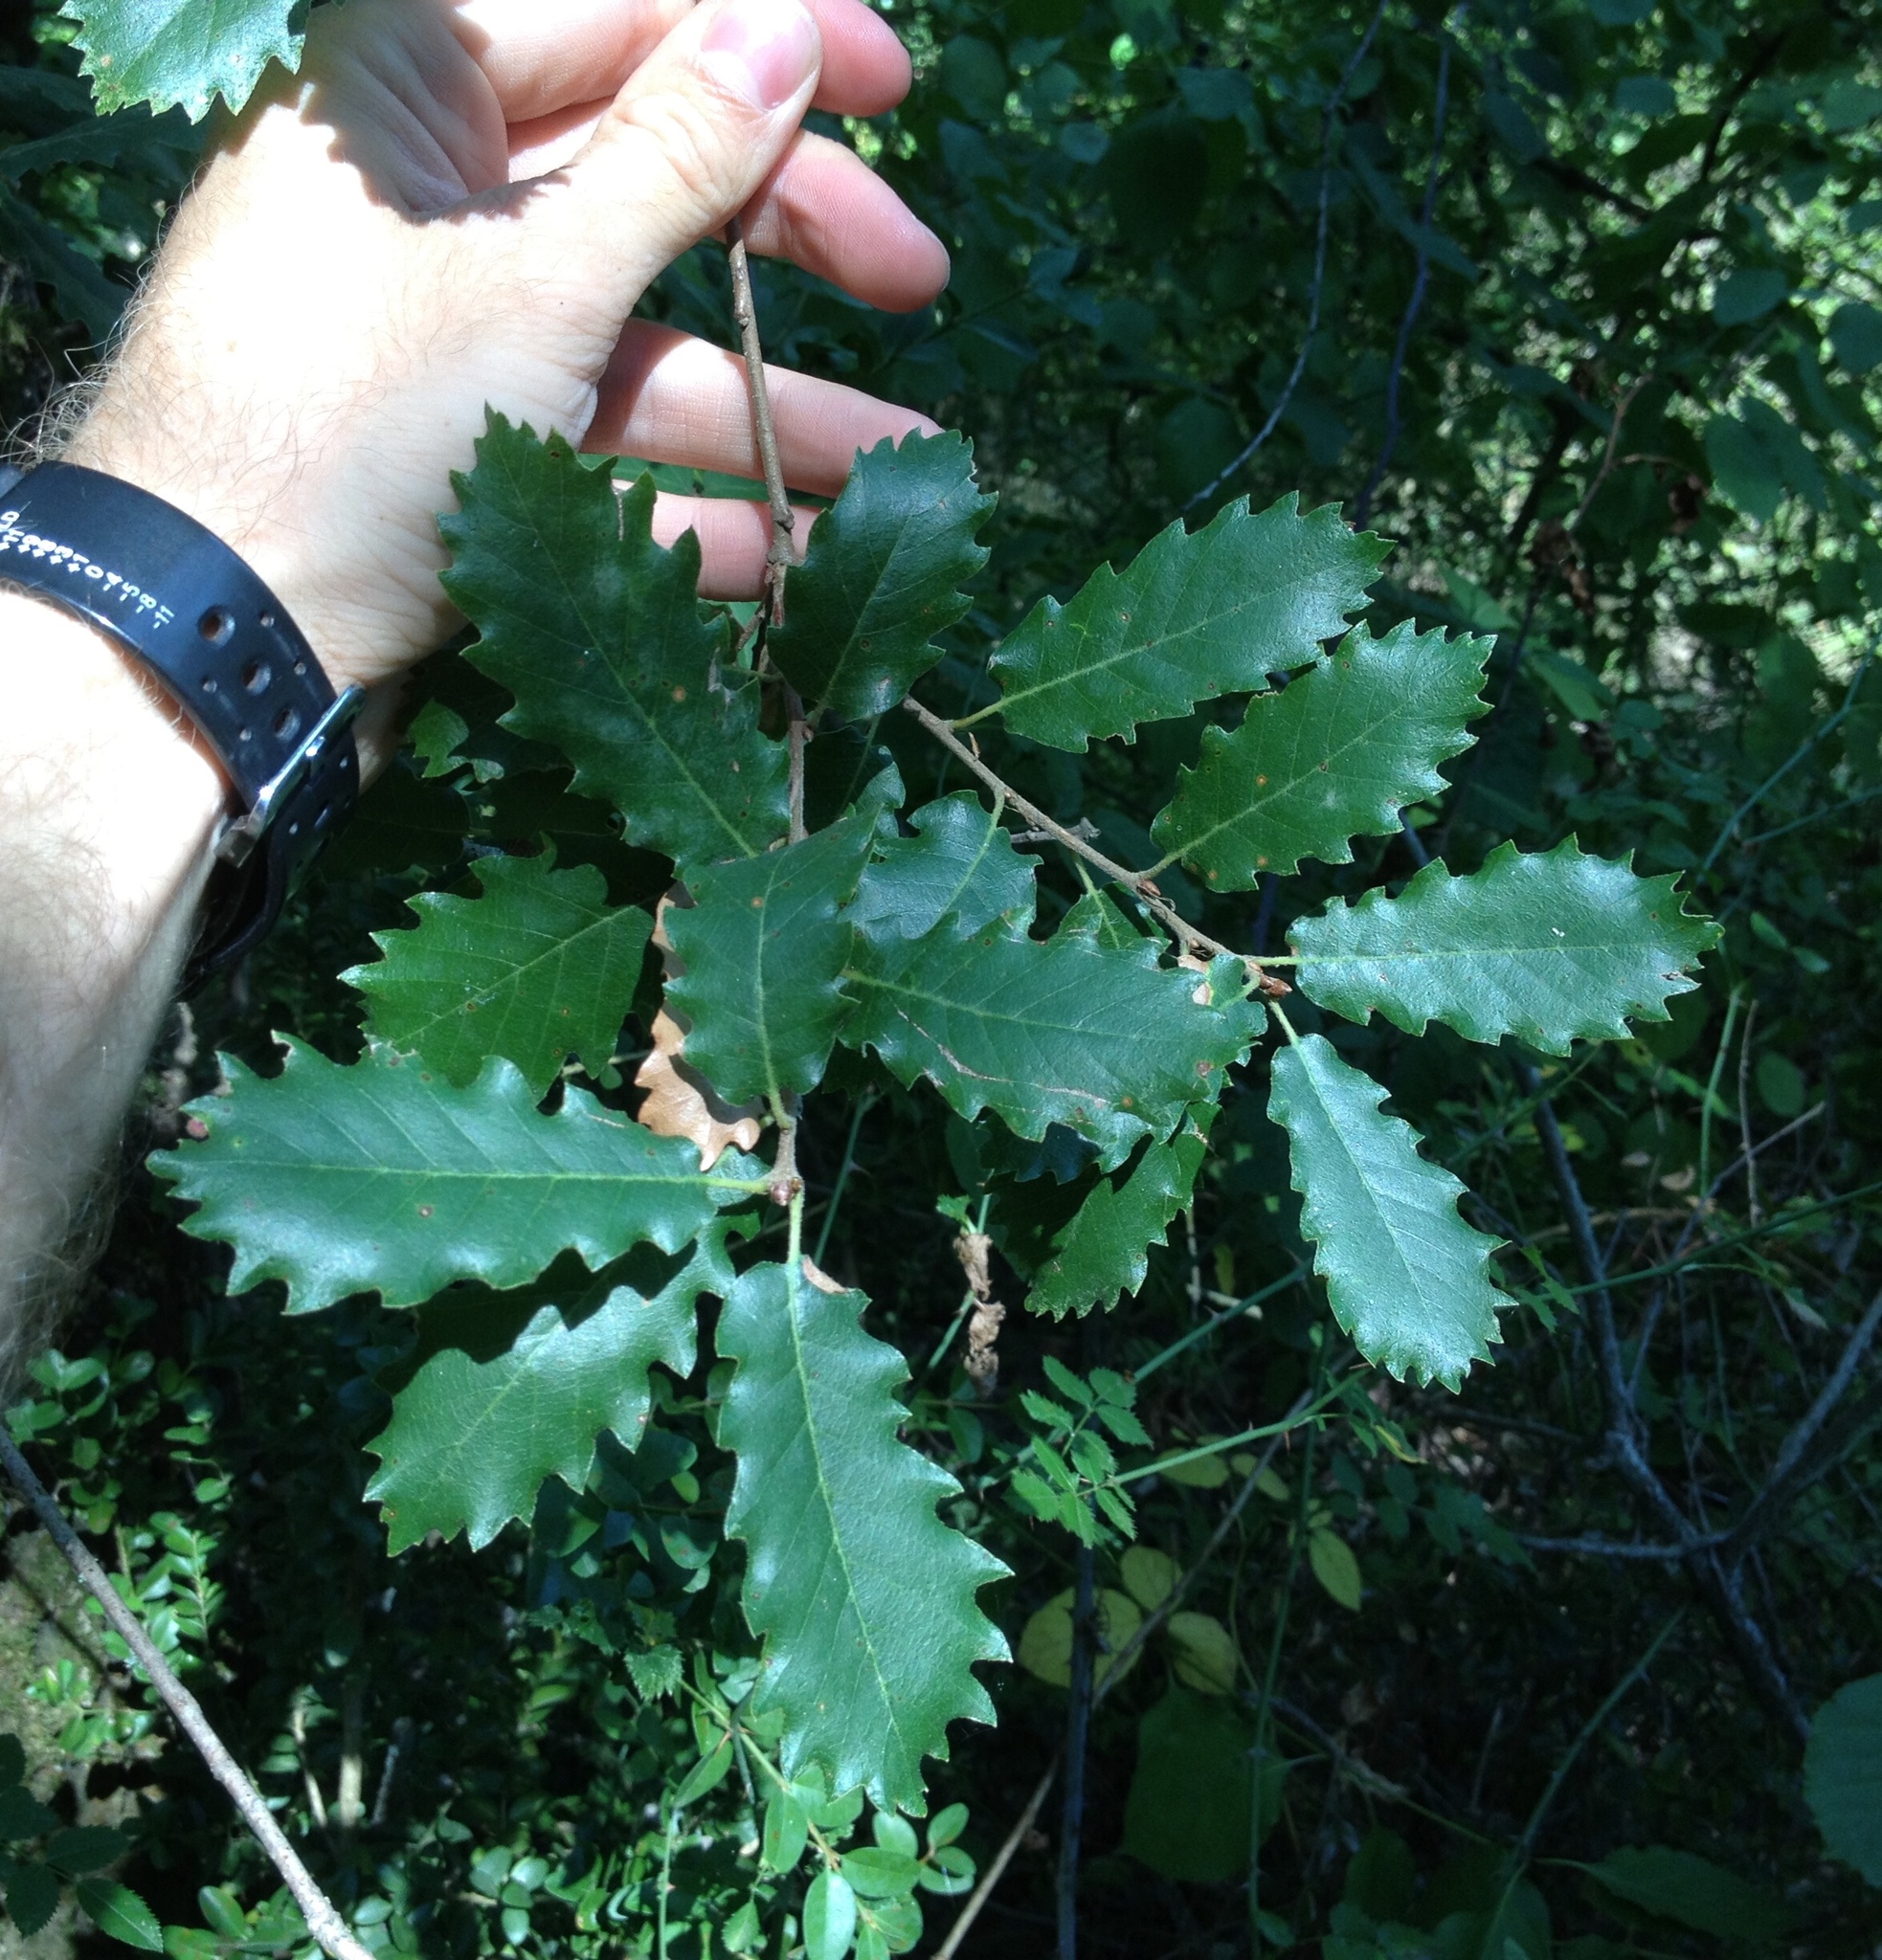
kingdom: Plantae
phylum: Tracheophyta
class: Magnoliopsida
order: Fagales
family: Fagaceae
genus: Quercus
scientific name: Quercus cerrioides
